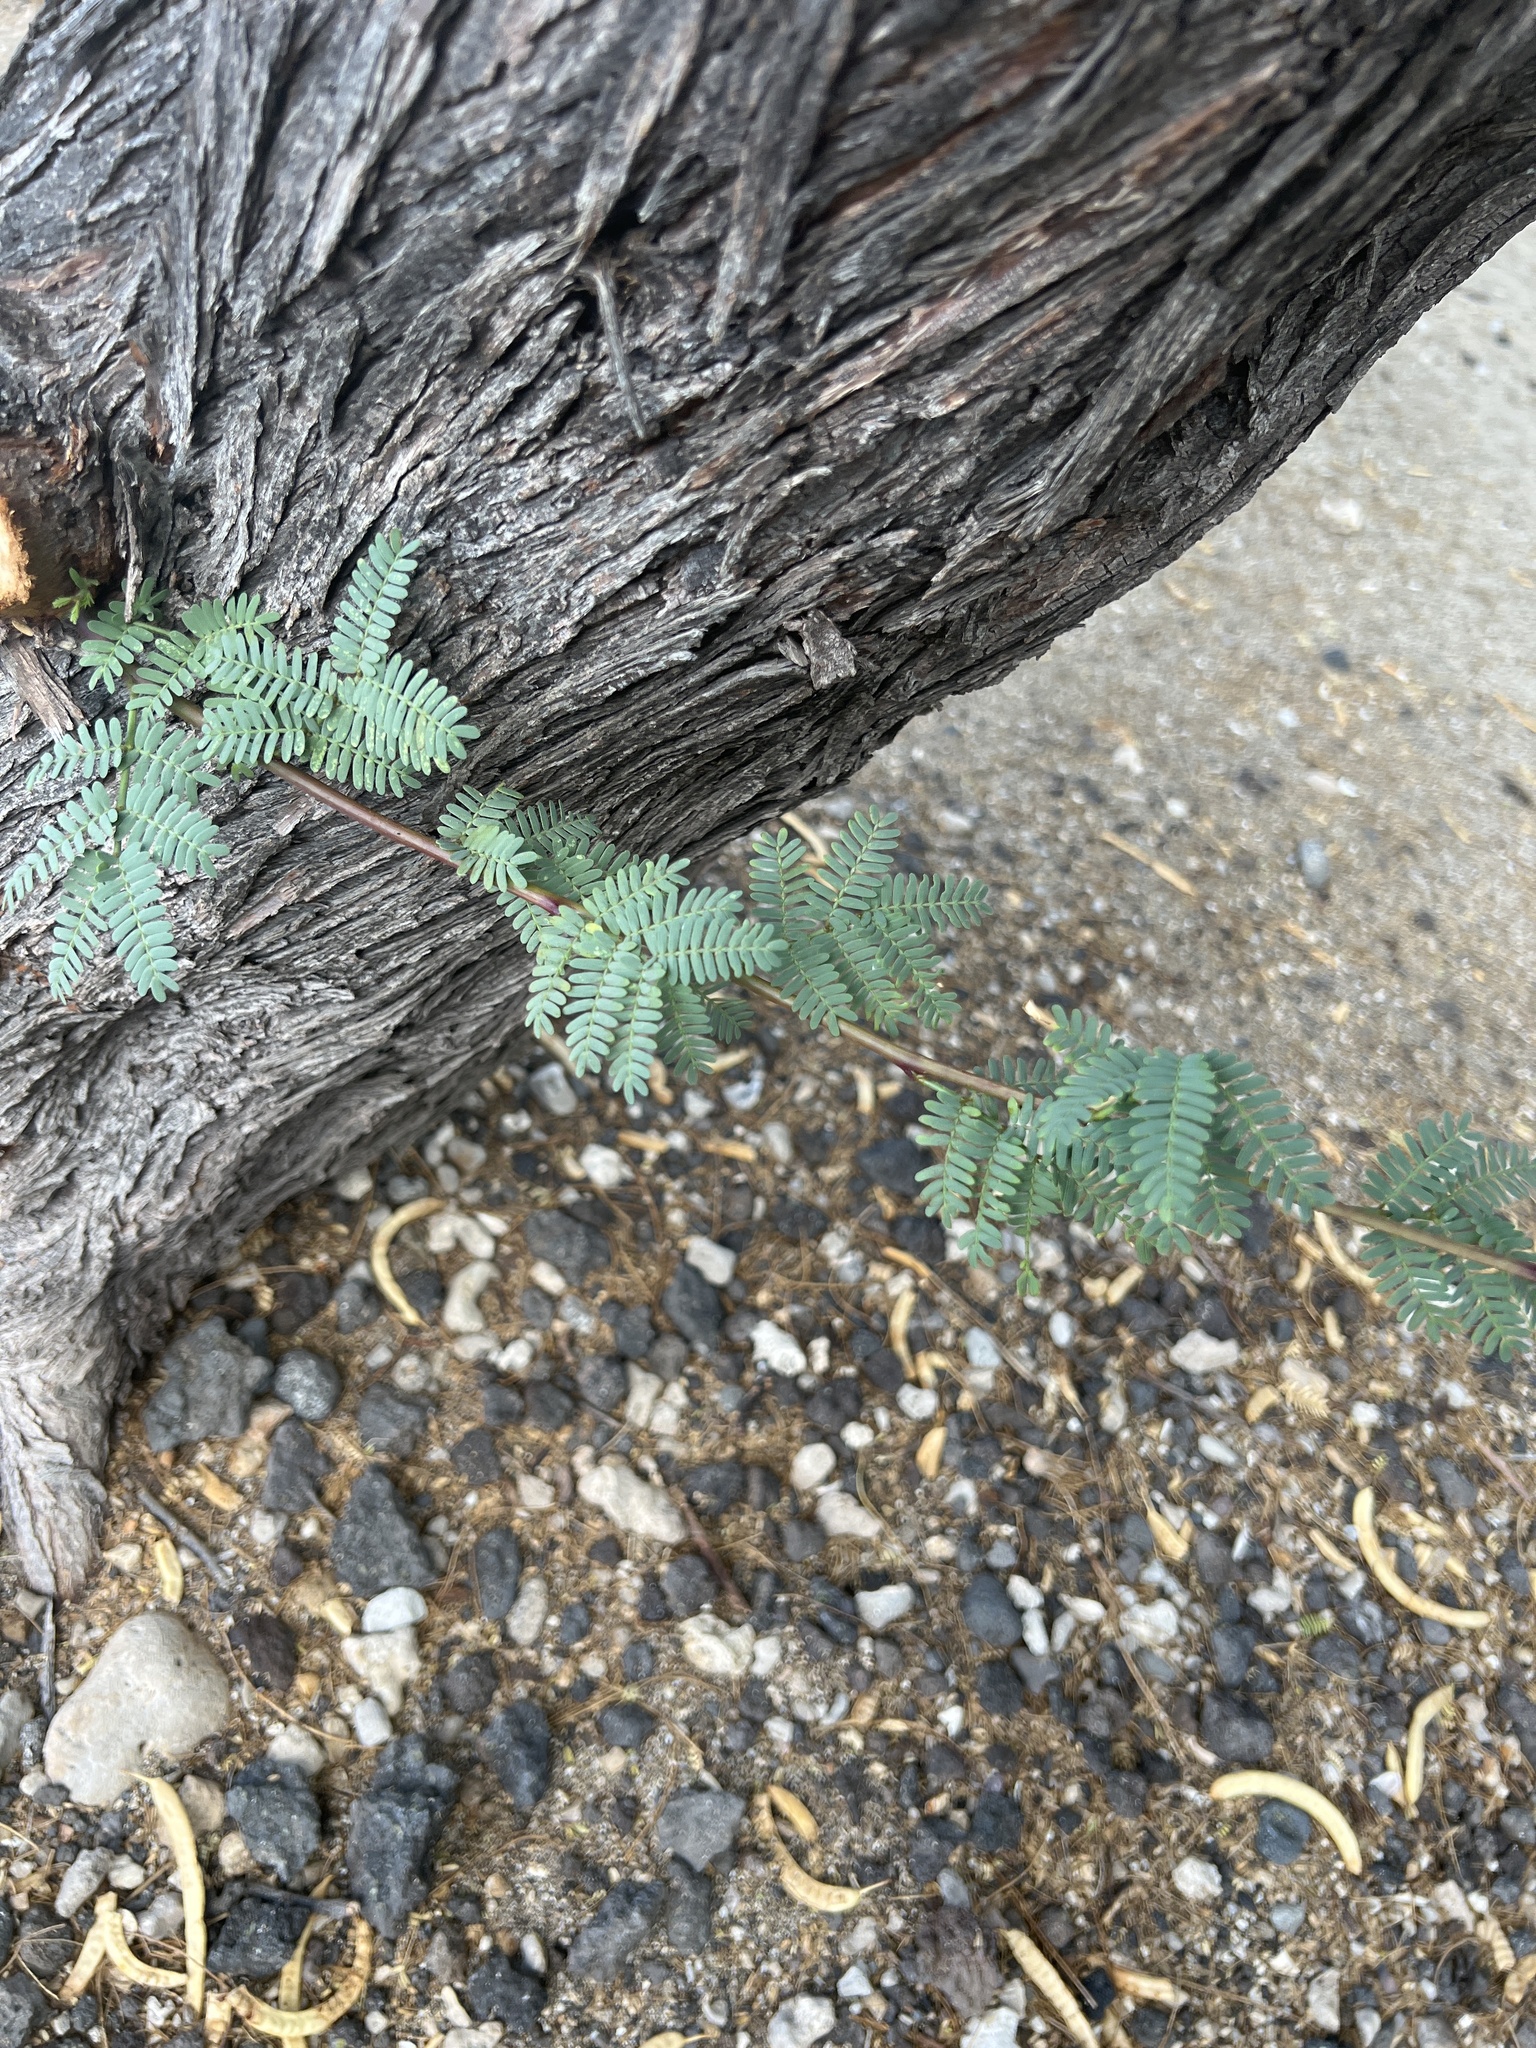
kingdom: Plantae
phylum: Tracheophyta
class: Magnoliopsida
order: Fabales
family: Fabaceae
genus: Prosopis
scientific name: Prosopis pallida
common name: Mesquite
